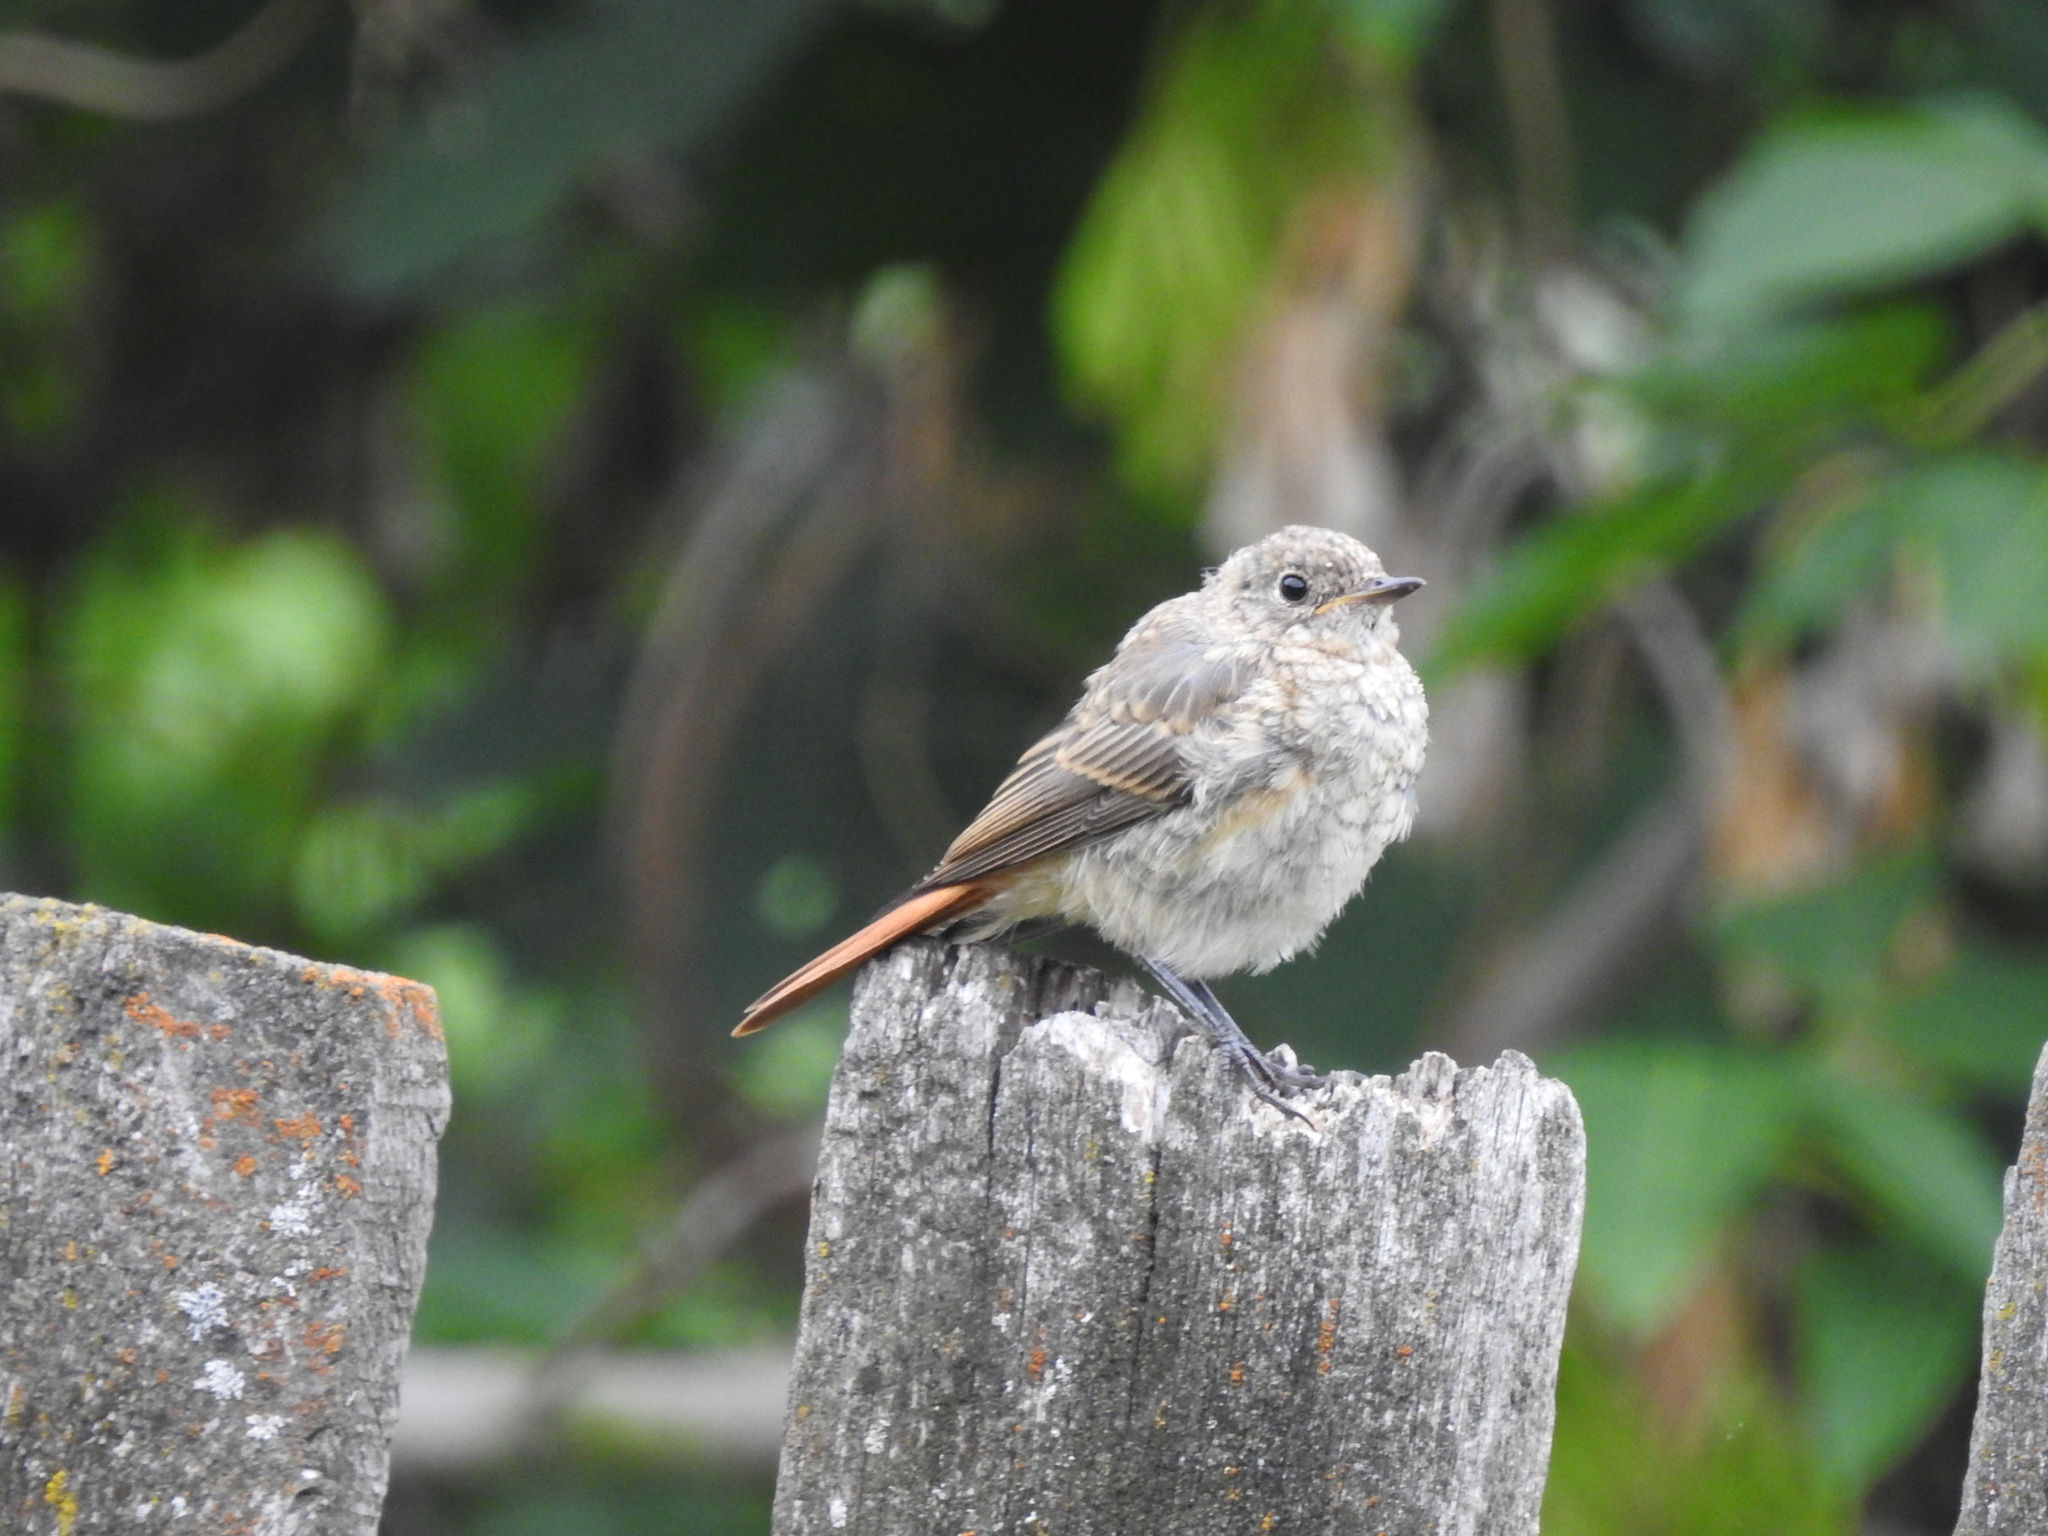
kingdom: Animalia
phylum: Chordata
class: Aves
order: Passeriformes
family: Muscicapidae
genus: Phoenicurus
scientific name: Phoenicurus phoenicurus
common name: Common redstart
